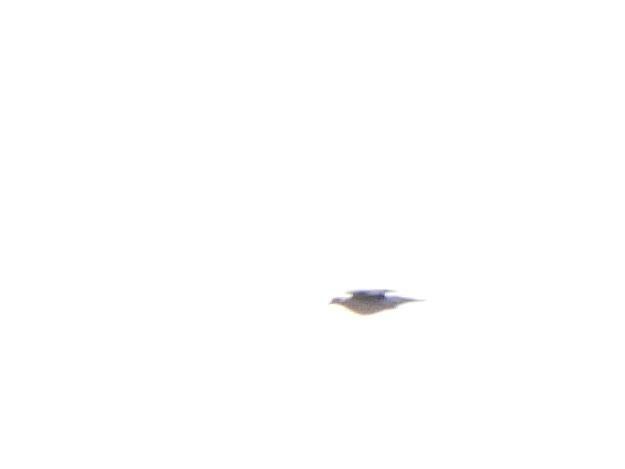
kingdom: Animalia
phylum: Chordata
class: Aves
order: Columbiformes
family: Columbidae
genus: Columba
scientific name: Columba palumbus
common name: Common wood pigeon
